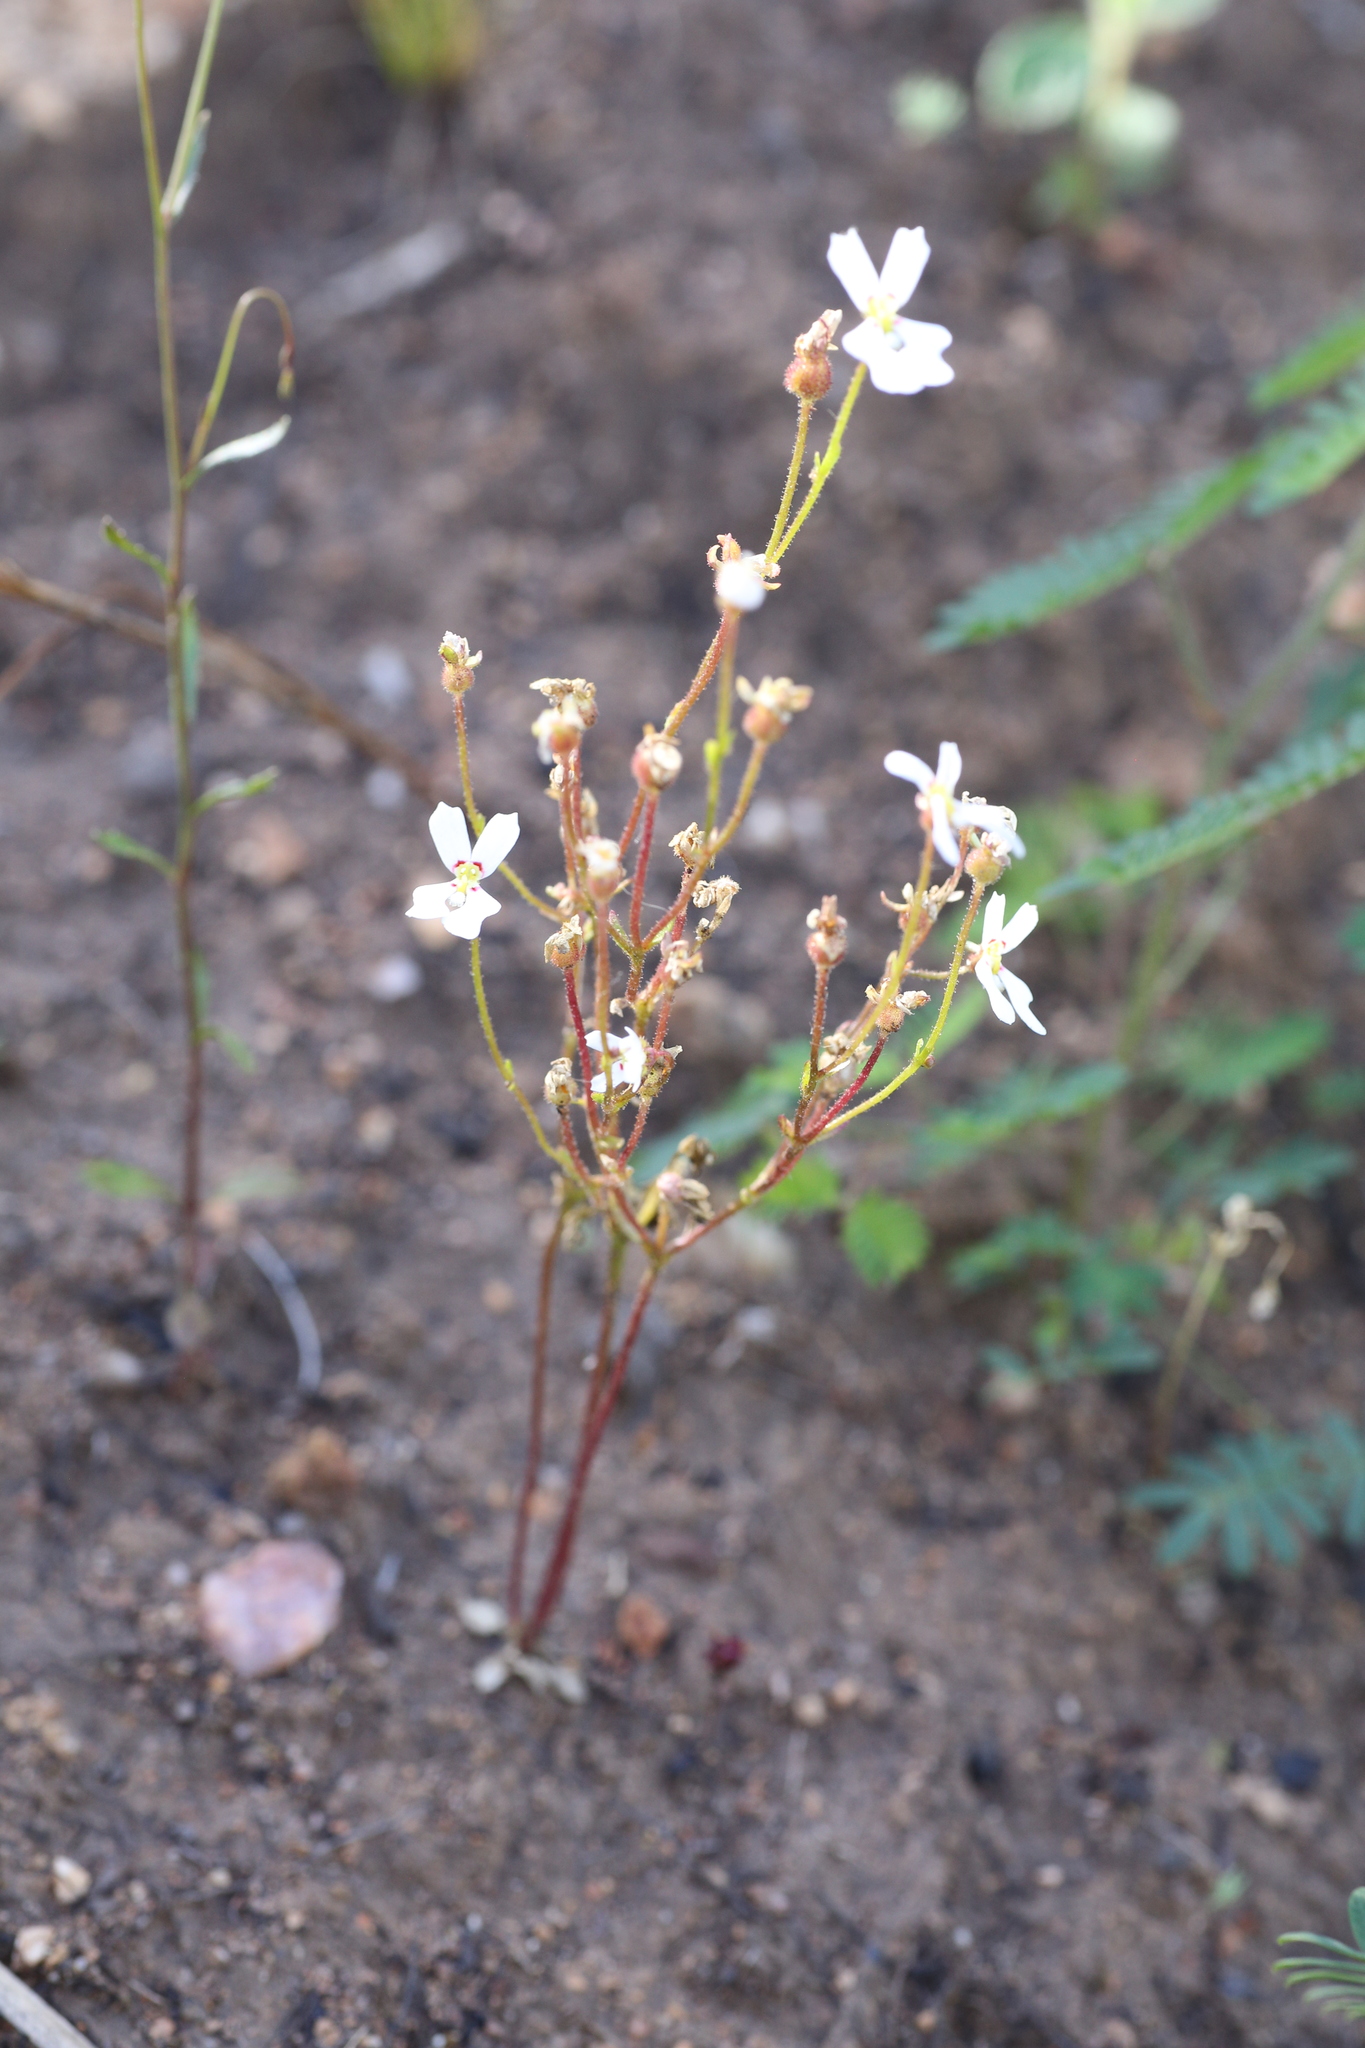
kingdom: Plantae
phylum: Tracheophyta
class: Magnoliopsida
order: Asterales
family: Stylidiaceae
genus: Stylidium
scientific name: Stylidium androsaceum
